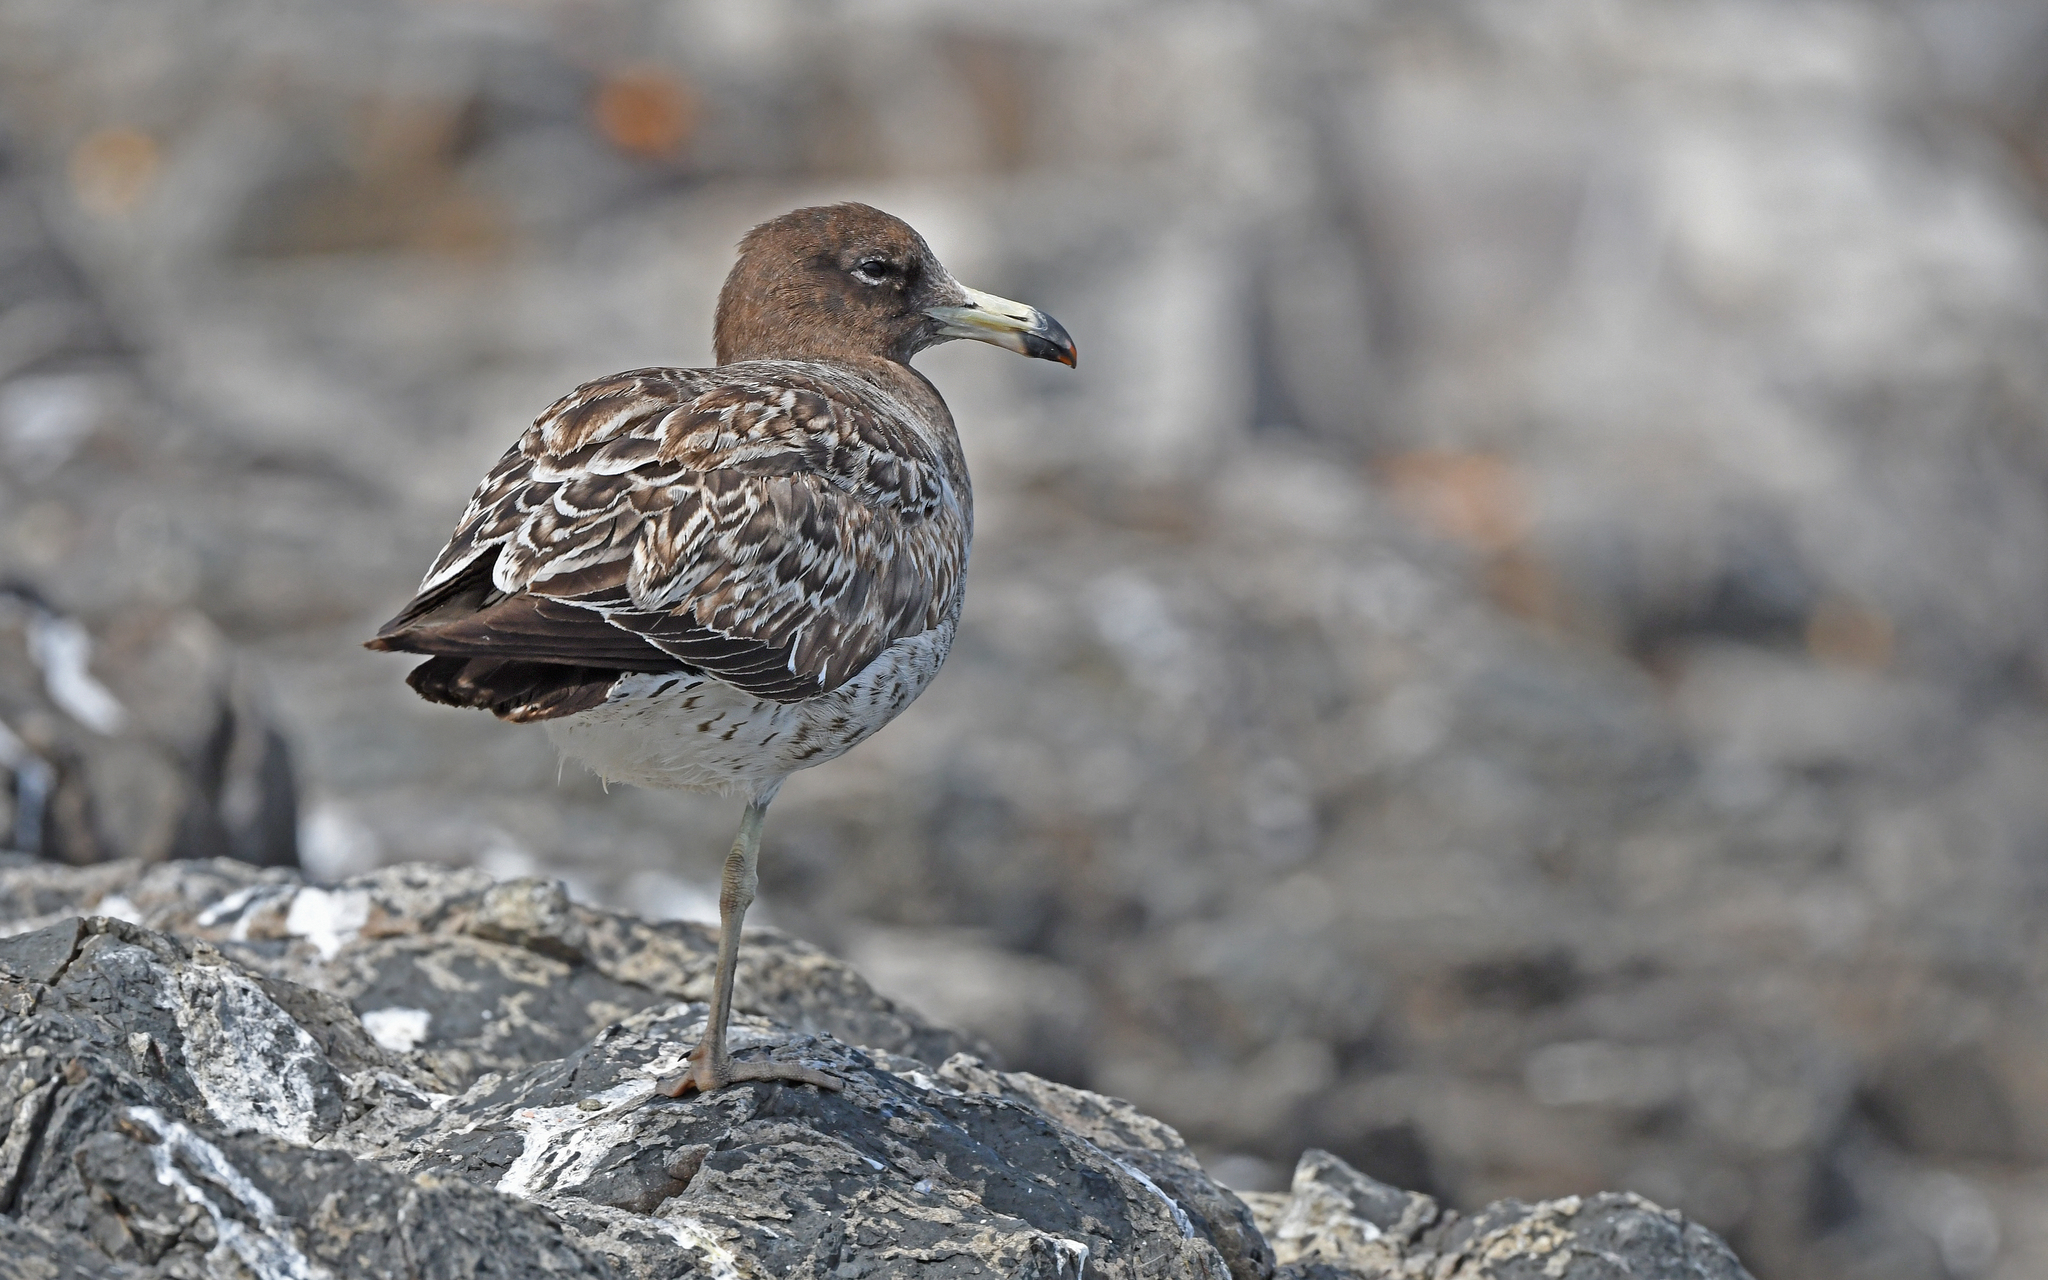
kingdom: Animalia
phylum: Chordata
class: Aves
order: Charadriiformes
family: Laridae
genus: Larus
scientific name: Larus belcheri
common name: Belcher's gull
